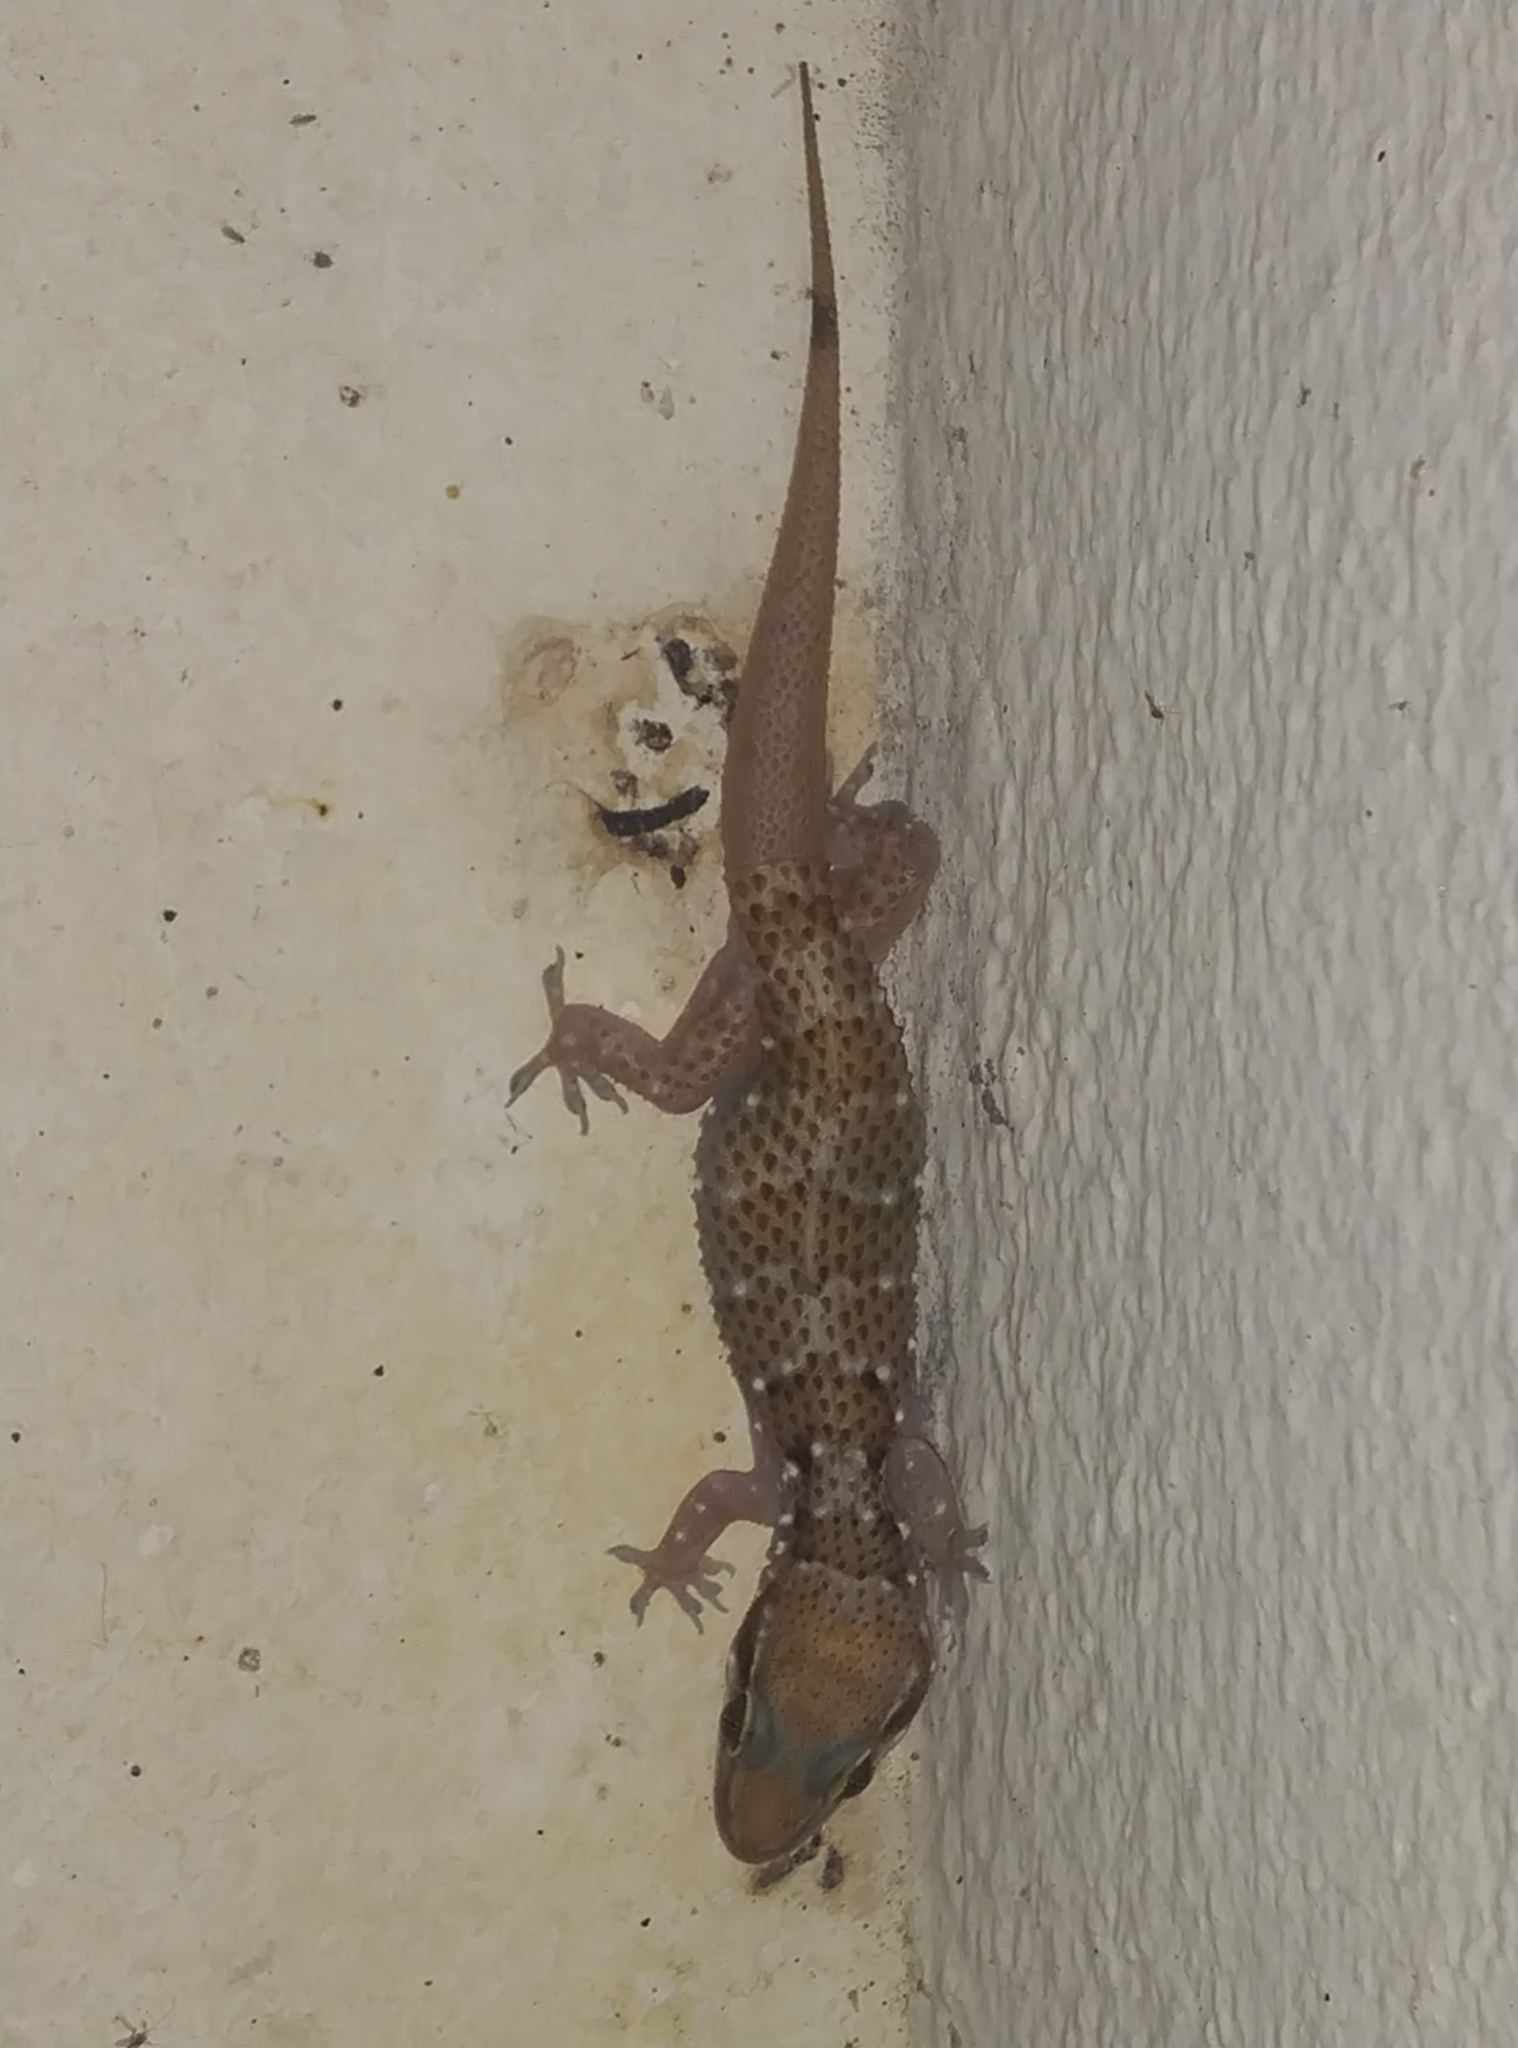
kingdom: Animalia
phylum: Chordata
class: Squamata
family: Gekkonidae
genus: Hemidactylus
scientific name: Hemidactylus triedrus
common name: Blotched house gecko
